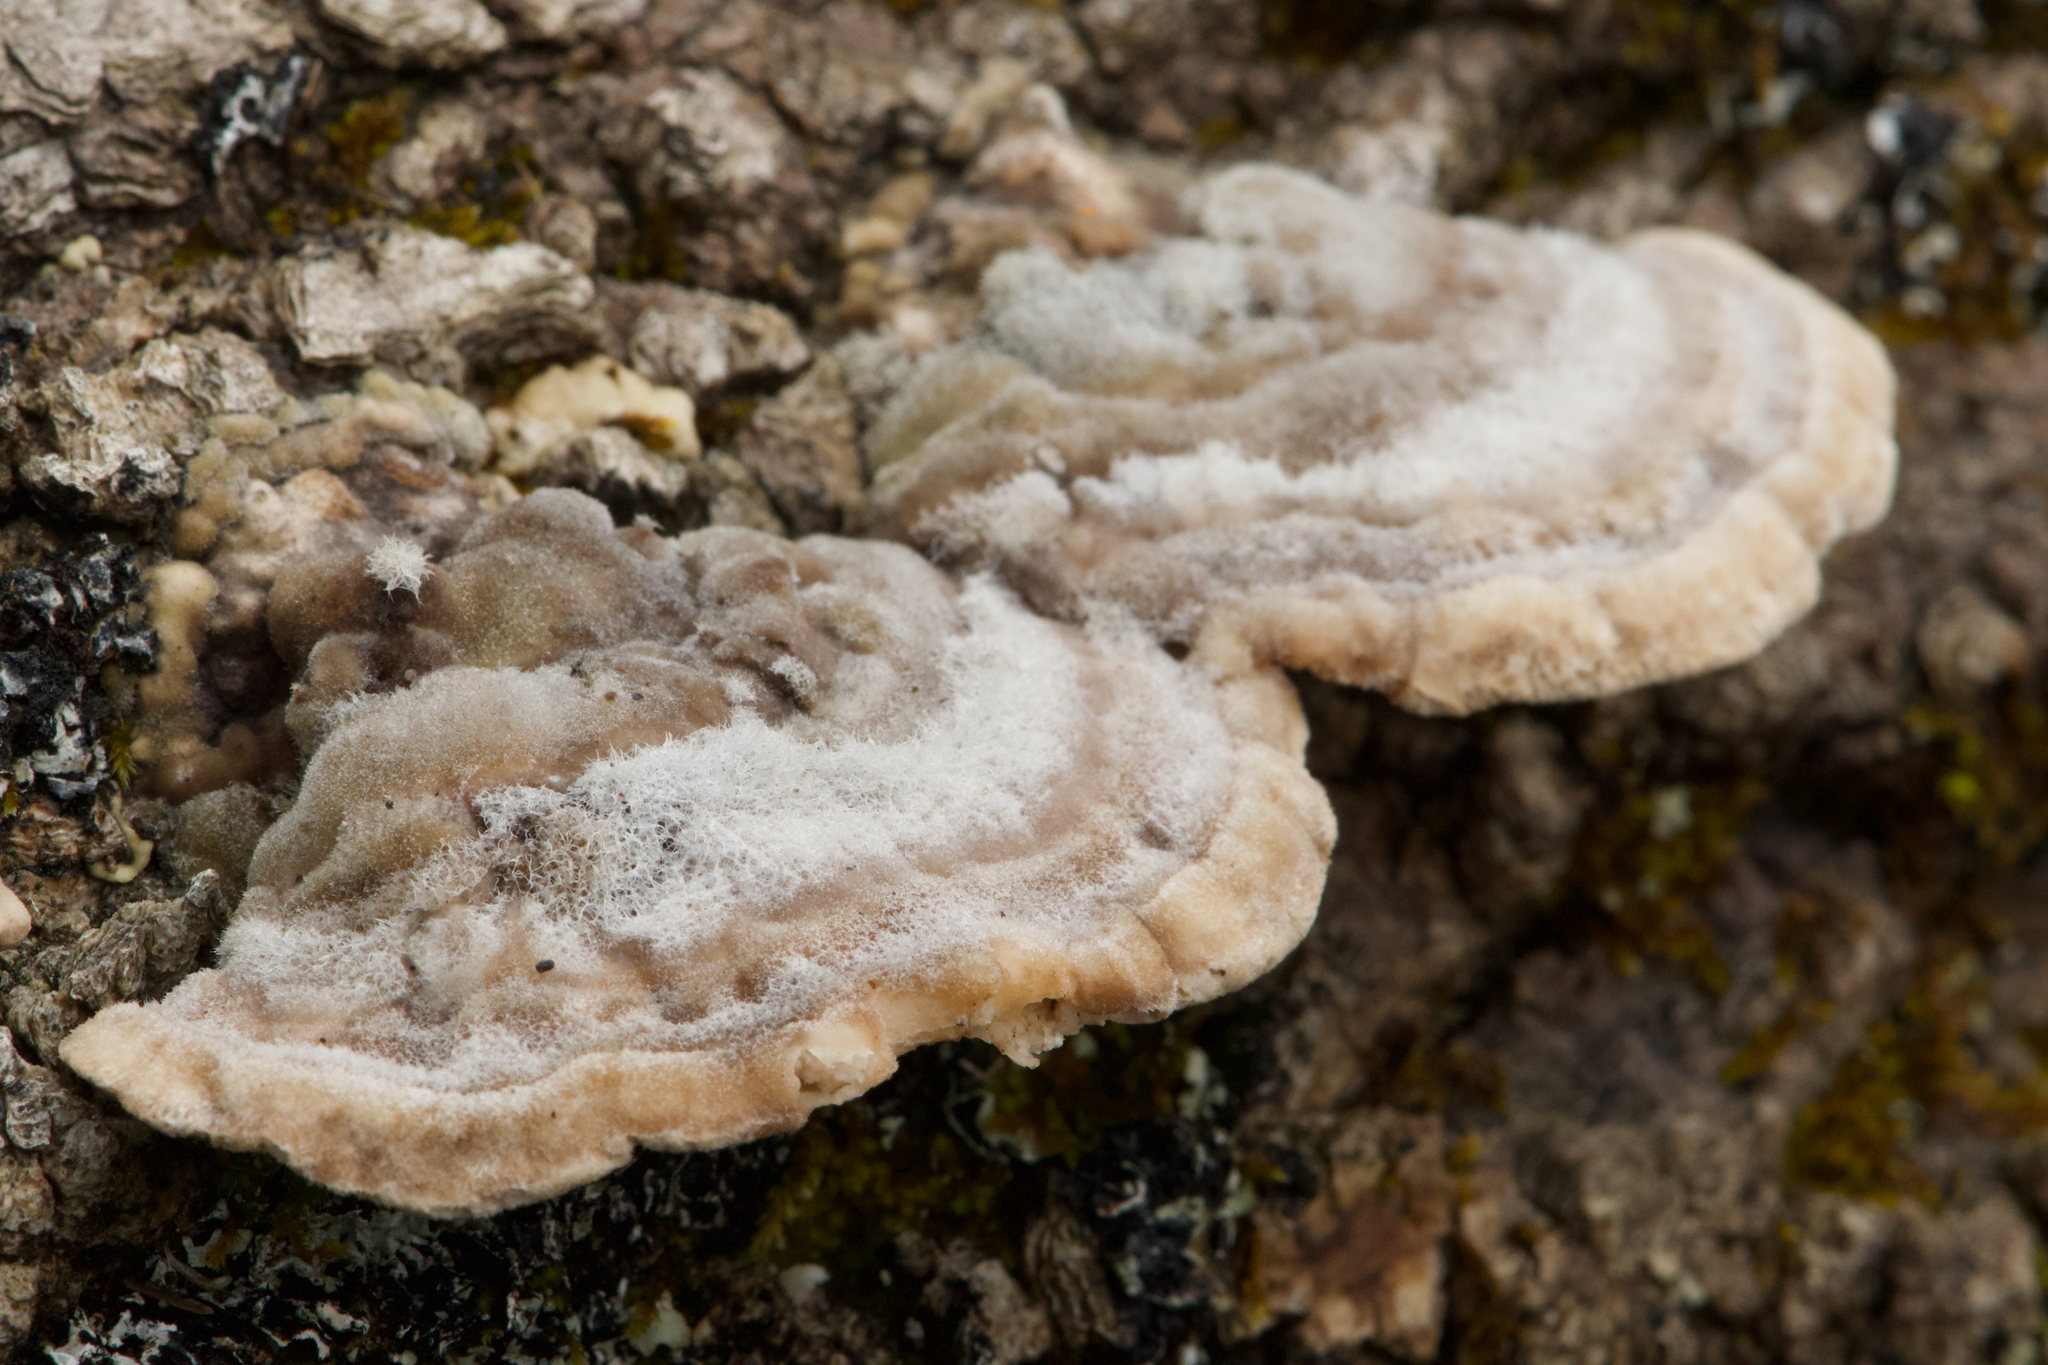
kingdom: Fungi
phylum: Basidiomycota
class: Agaricomycetes
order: Polyporales
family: Polyporaceae
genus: Trametes
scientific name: Trametes hirsuta
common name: Hairy bracket
